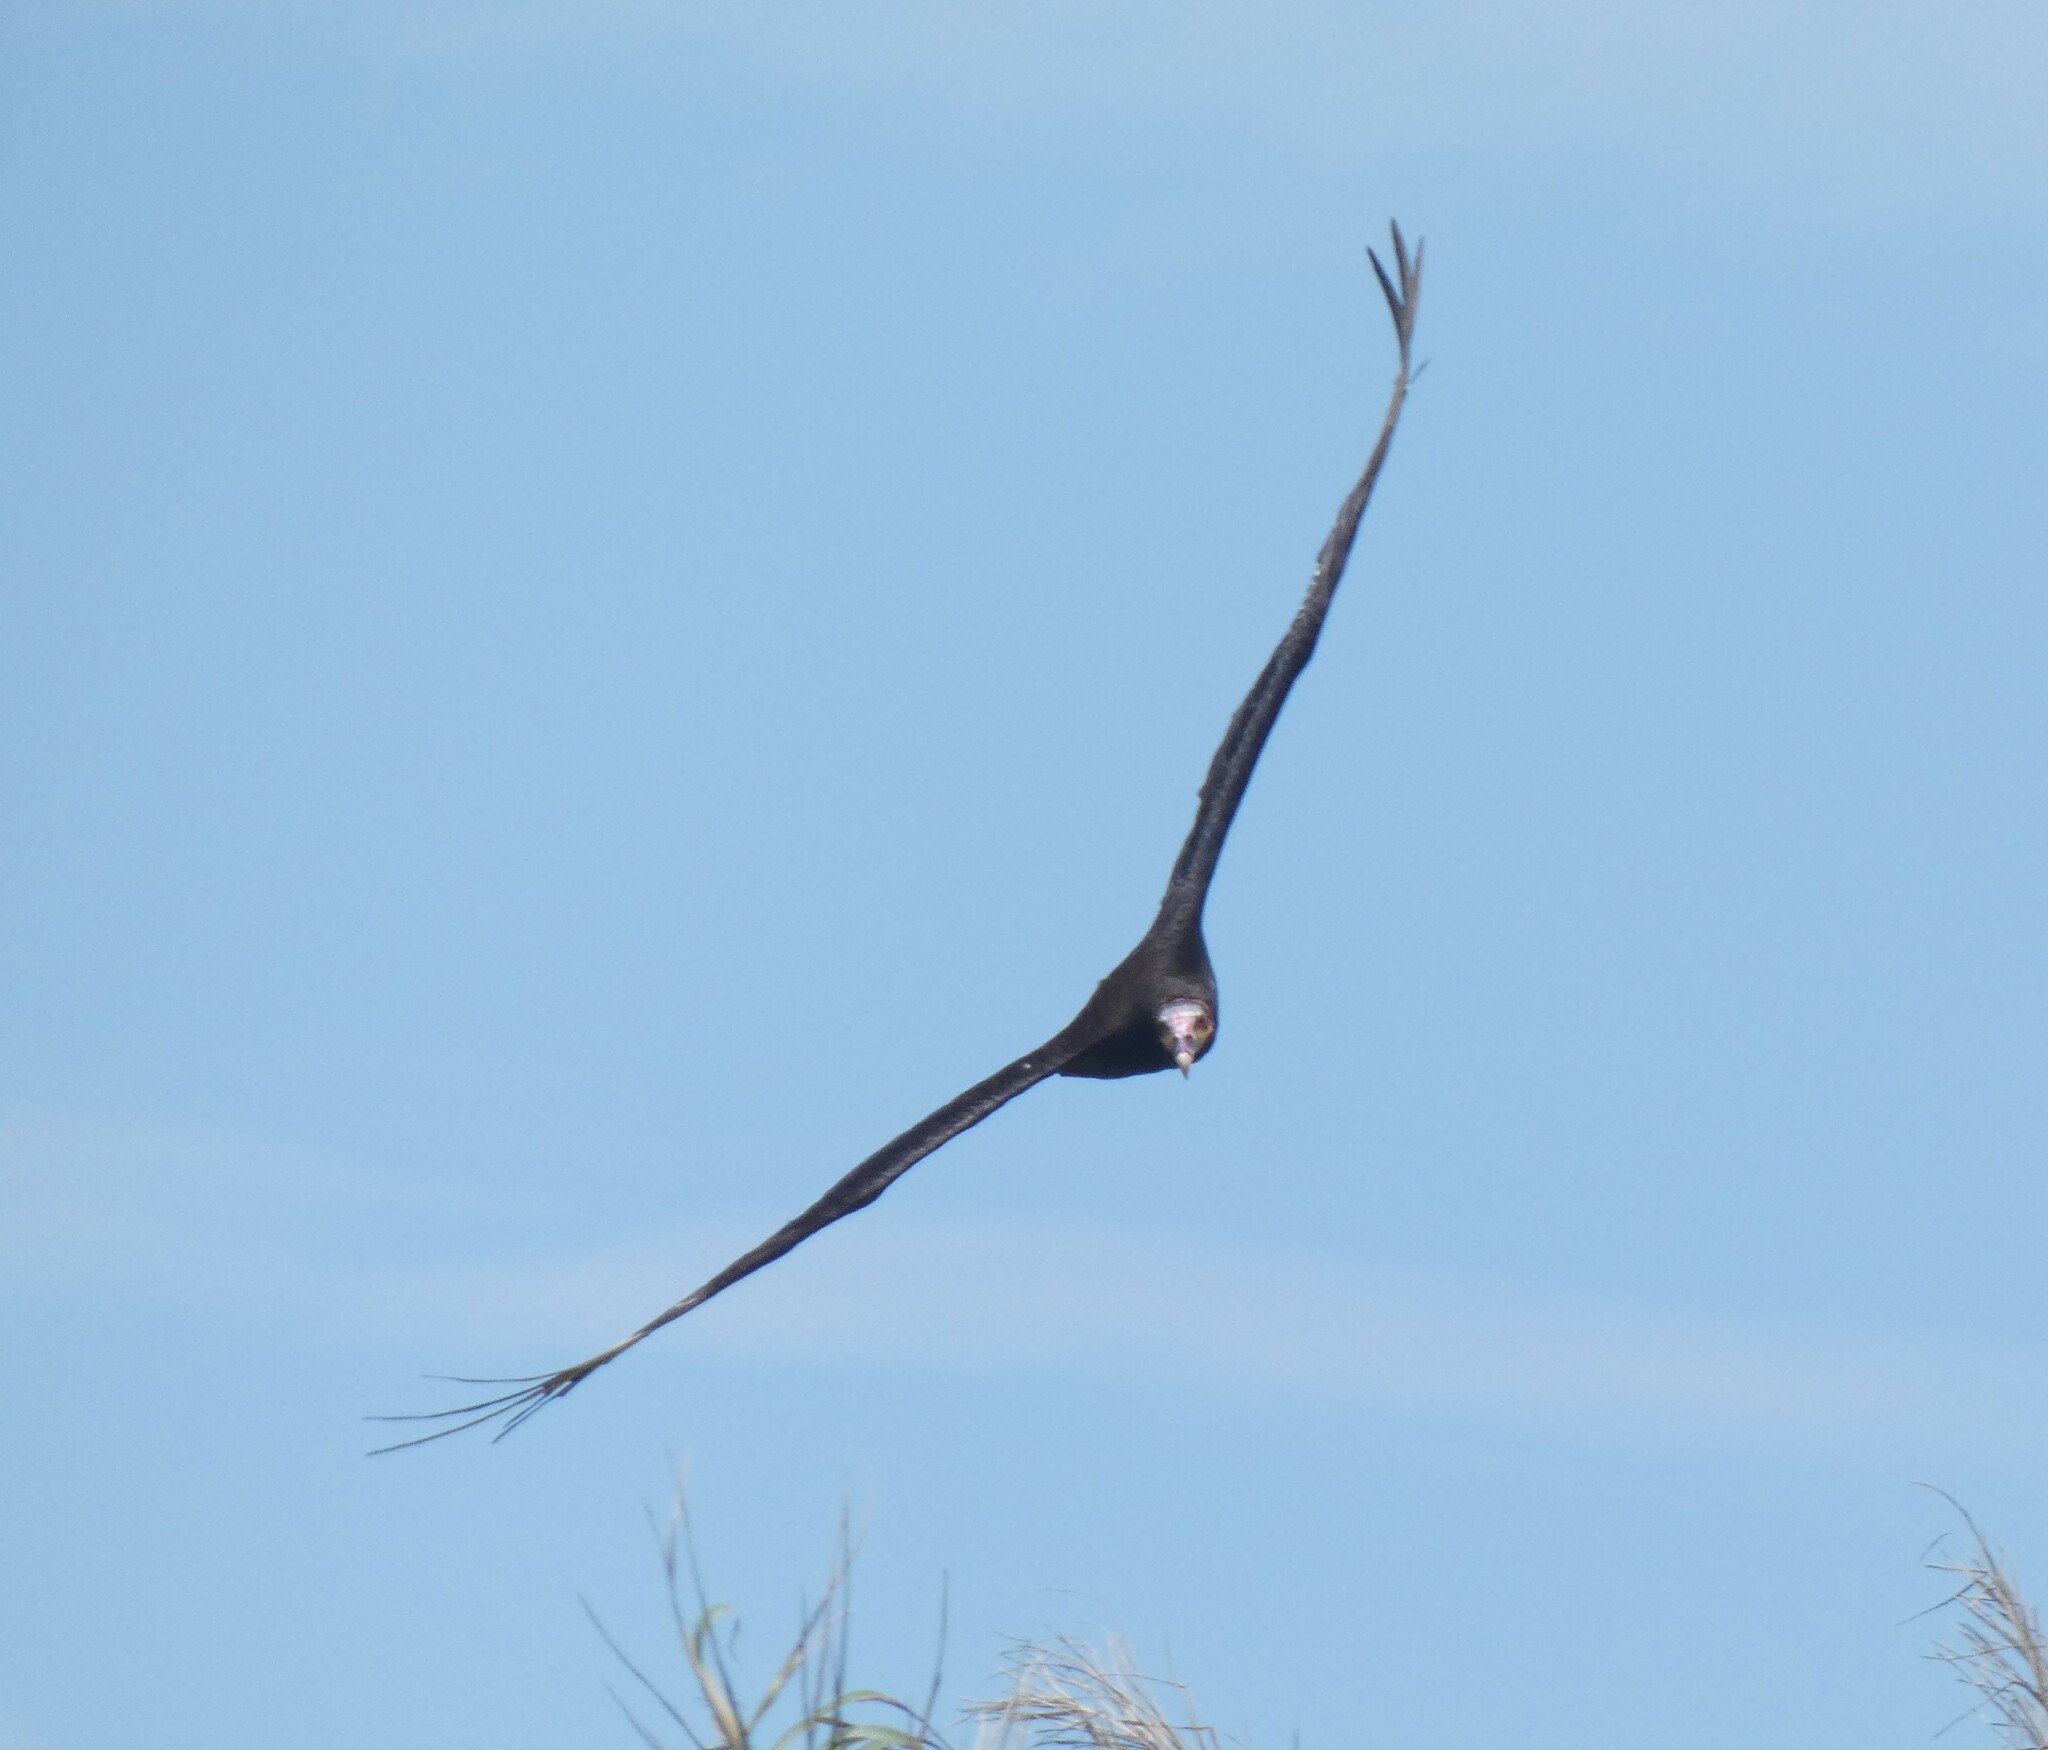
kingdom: Animalia
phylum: Chordata
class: Aves
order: Accipitriformes
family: Cathartidae
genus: Cathartes
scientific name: Cathartes burrovianus
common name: Lesser yellow-headed vulture
